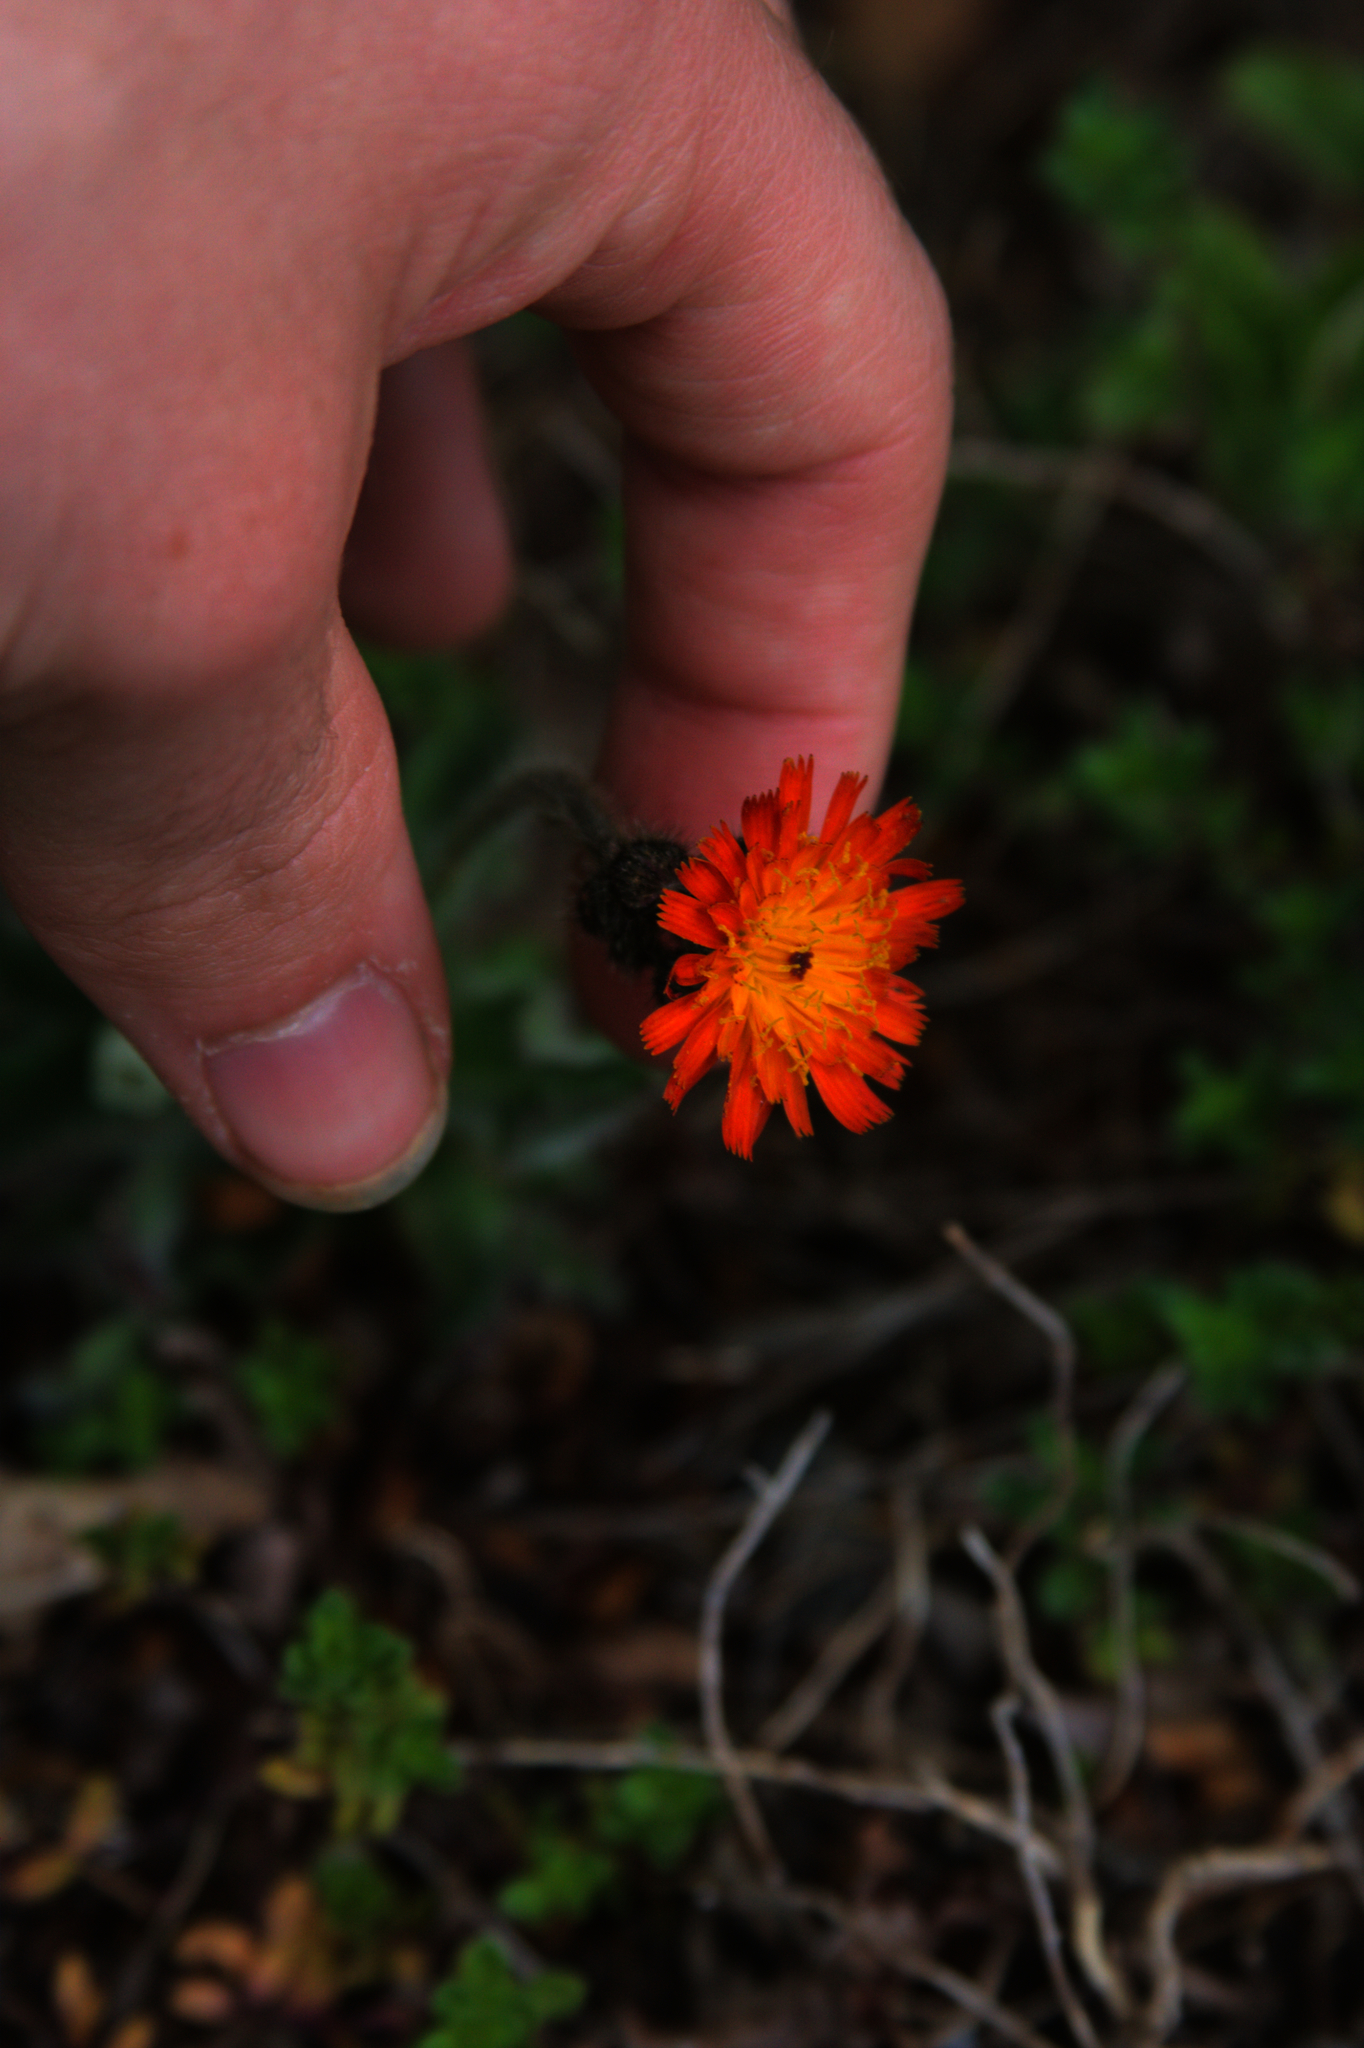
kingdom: Plantae
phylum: Tracheophyta
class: Magnoliopsida
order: Asterales
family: Asteraceae
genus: Pilosella
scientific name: Pilosella aurantiaca
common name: Fox-and-cubs
